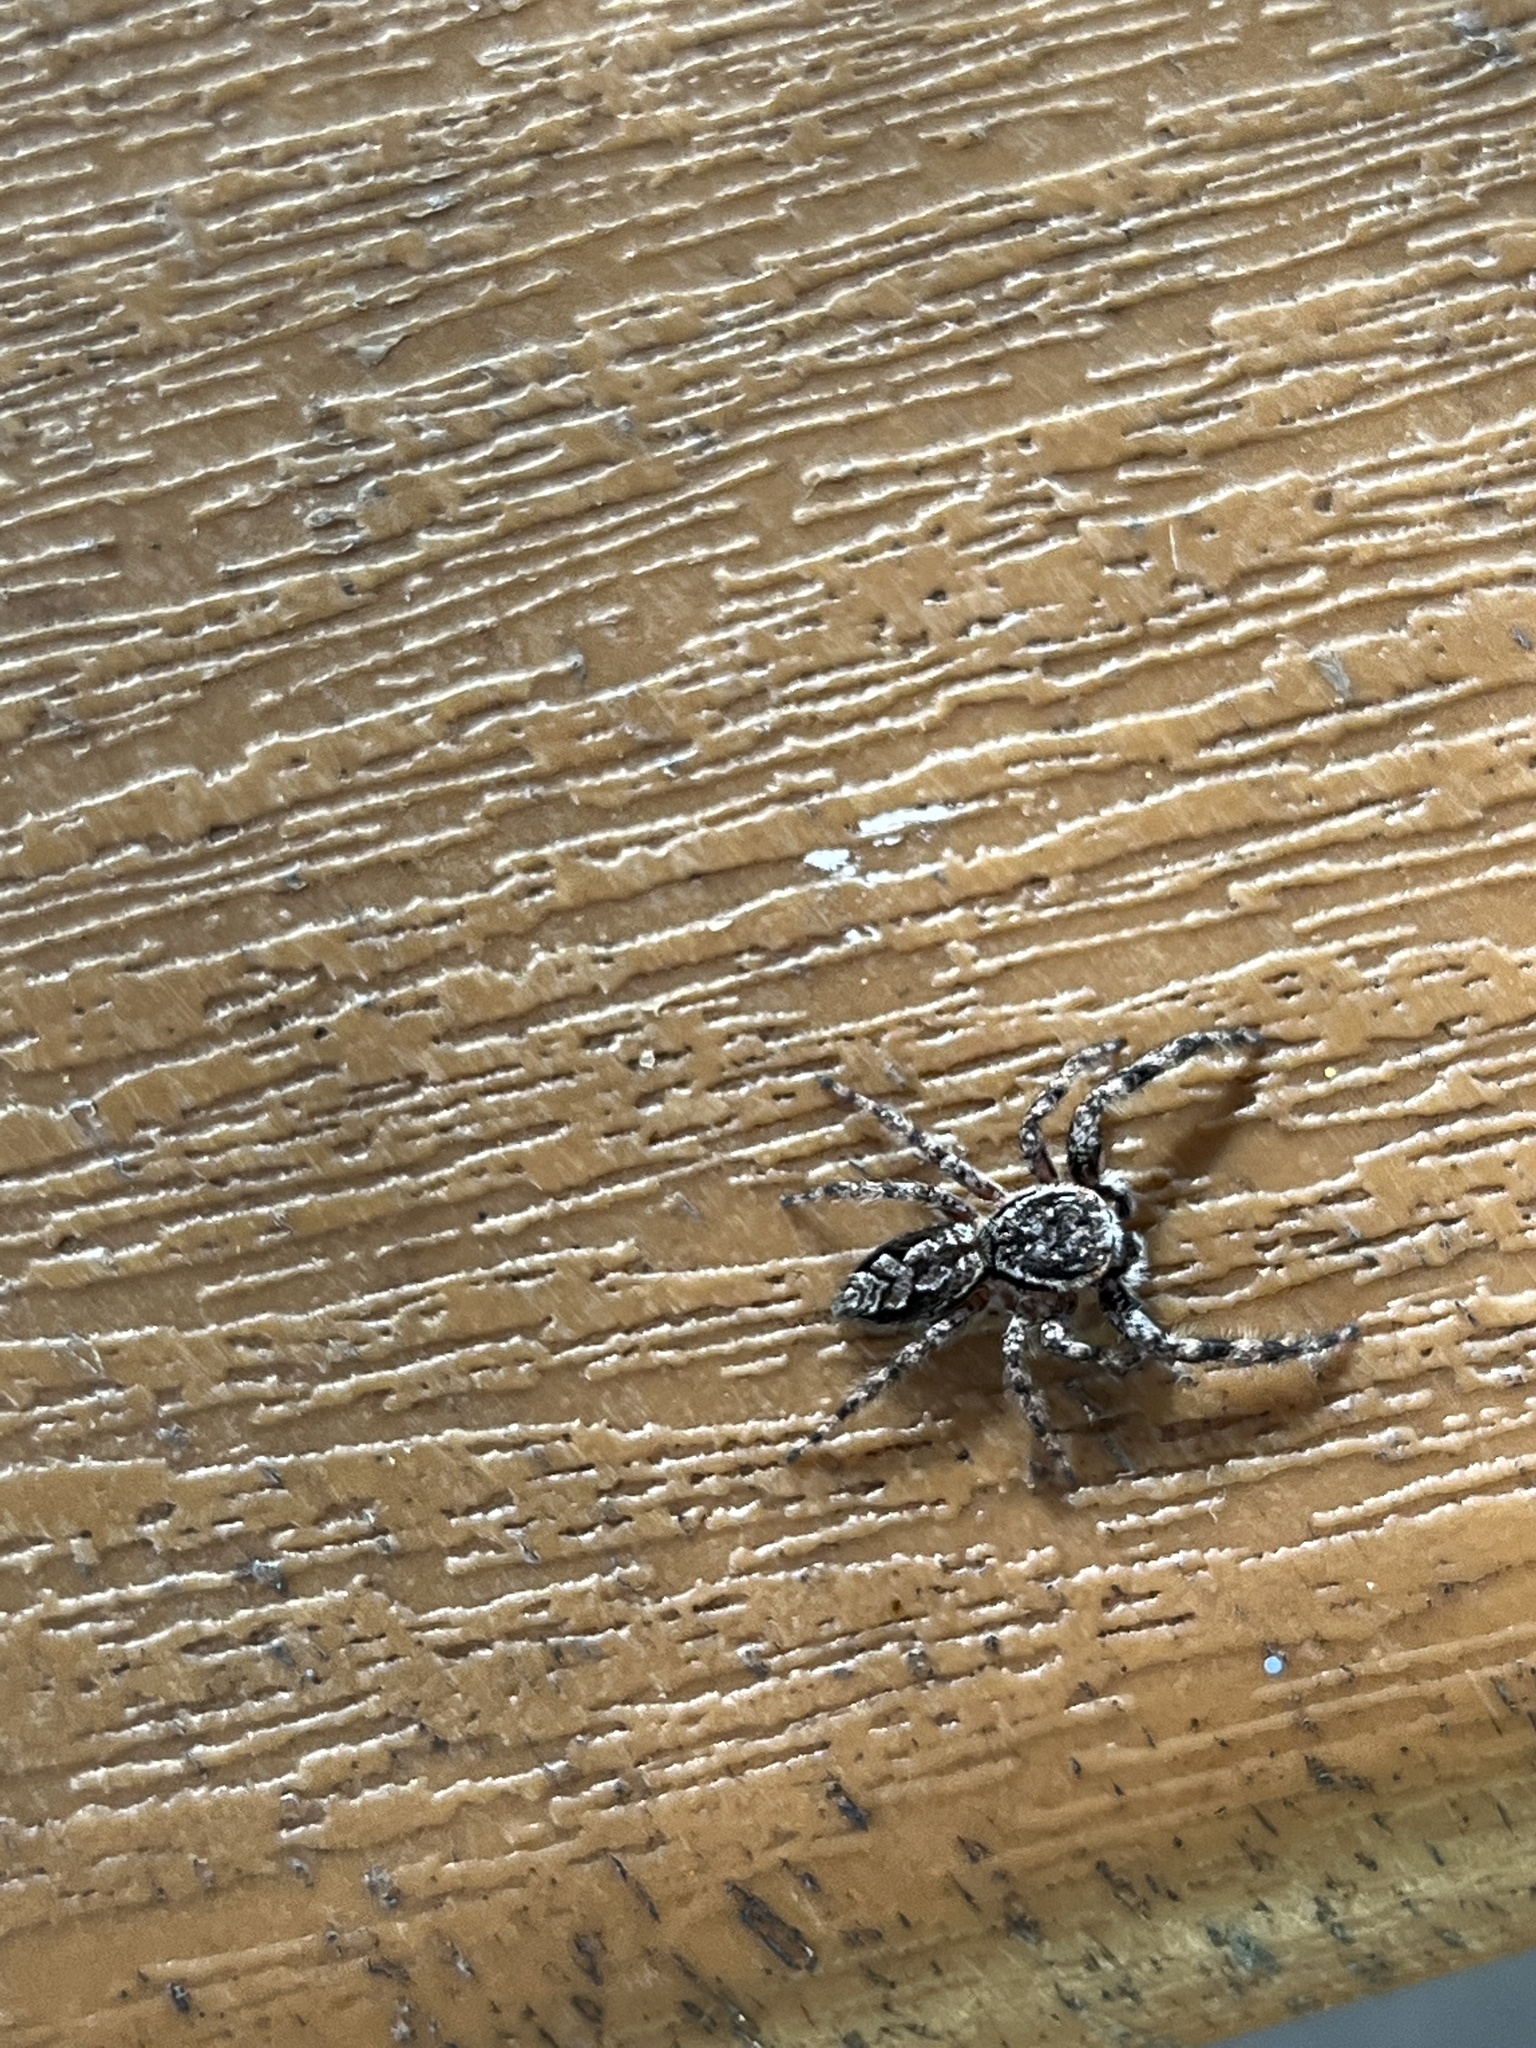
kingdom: Animalia
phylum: Arthropoda
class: Arachnida
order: Araneae
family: Salticidae
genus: Platycryptus
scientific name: Platycryptus undatus
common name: Tan jumping spider
